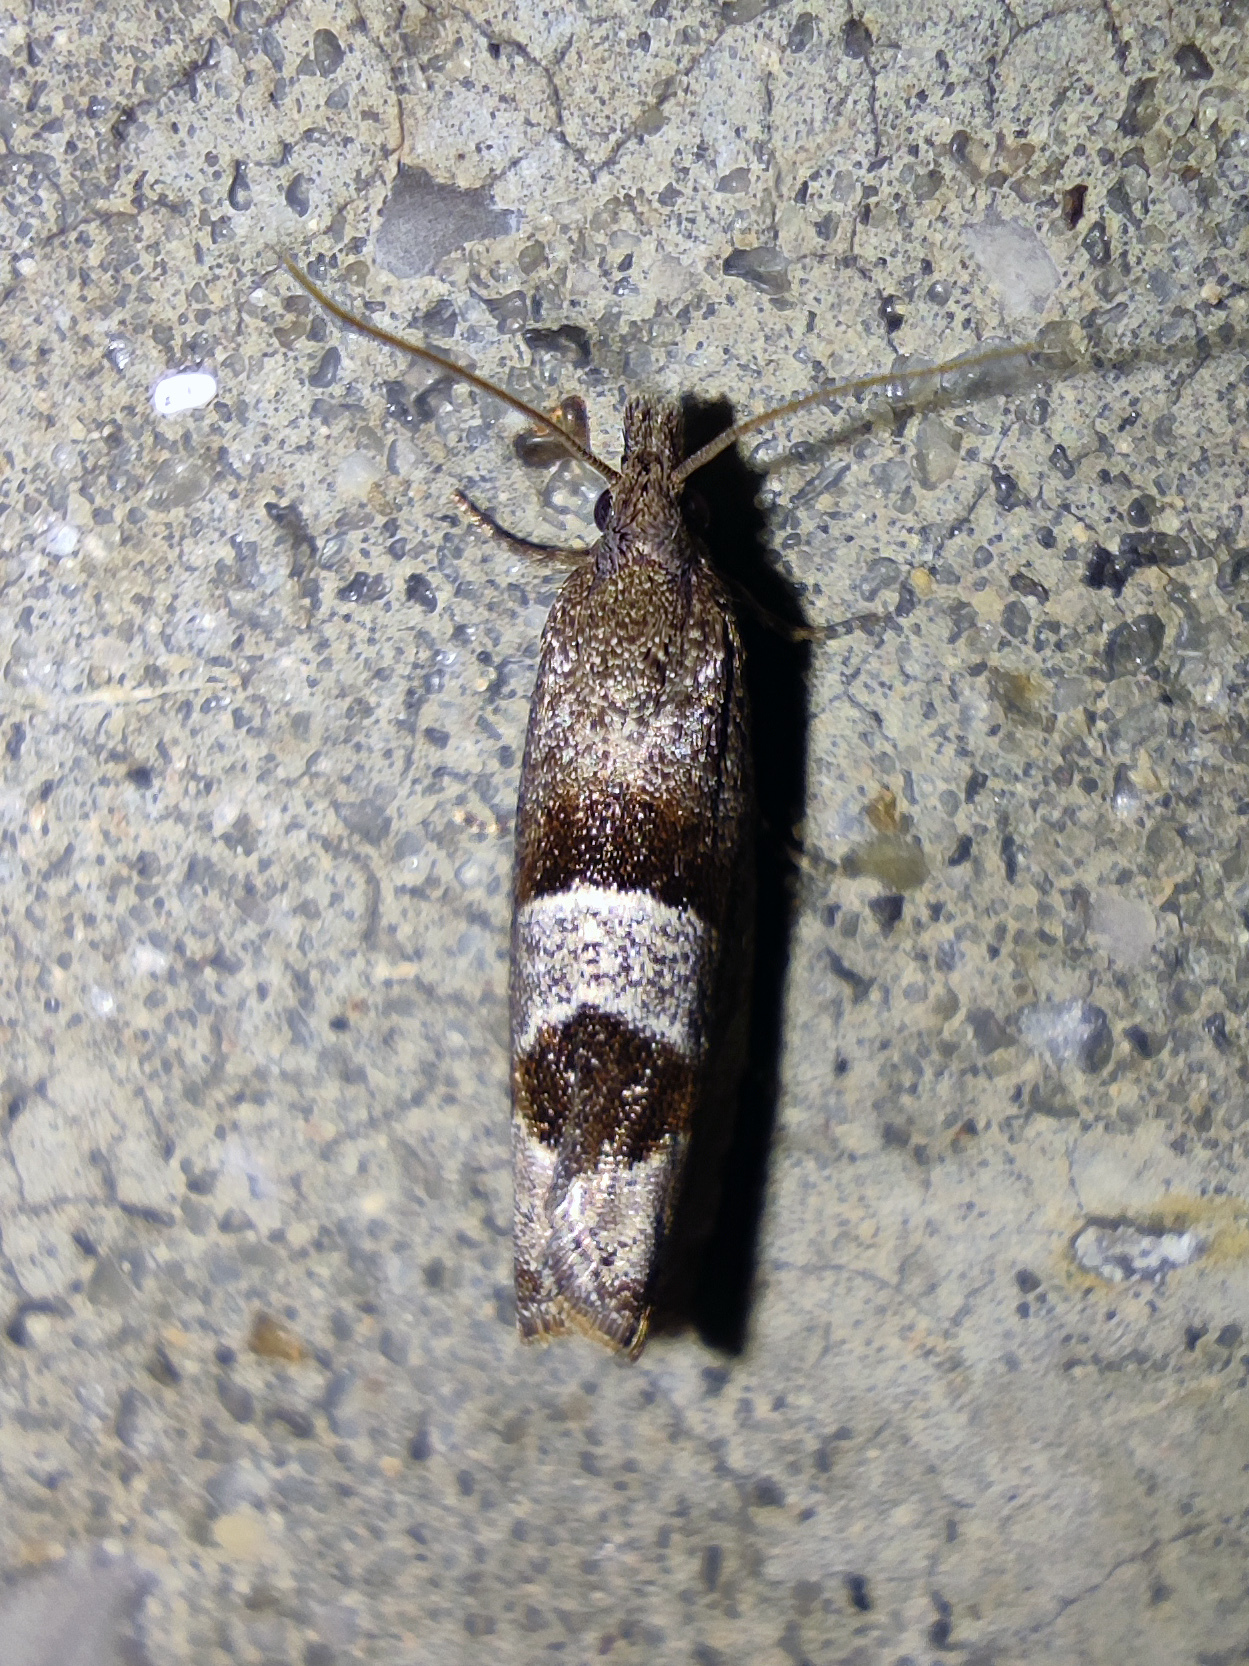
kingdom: Animalia
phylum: Arthropoda
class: Insecta
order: Lepidoptera
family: Tortricidae
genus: Epiblema
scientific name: Epiblema junctana
